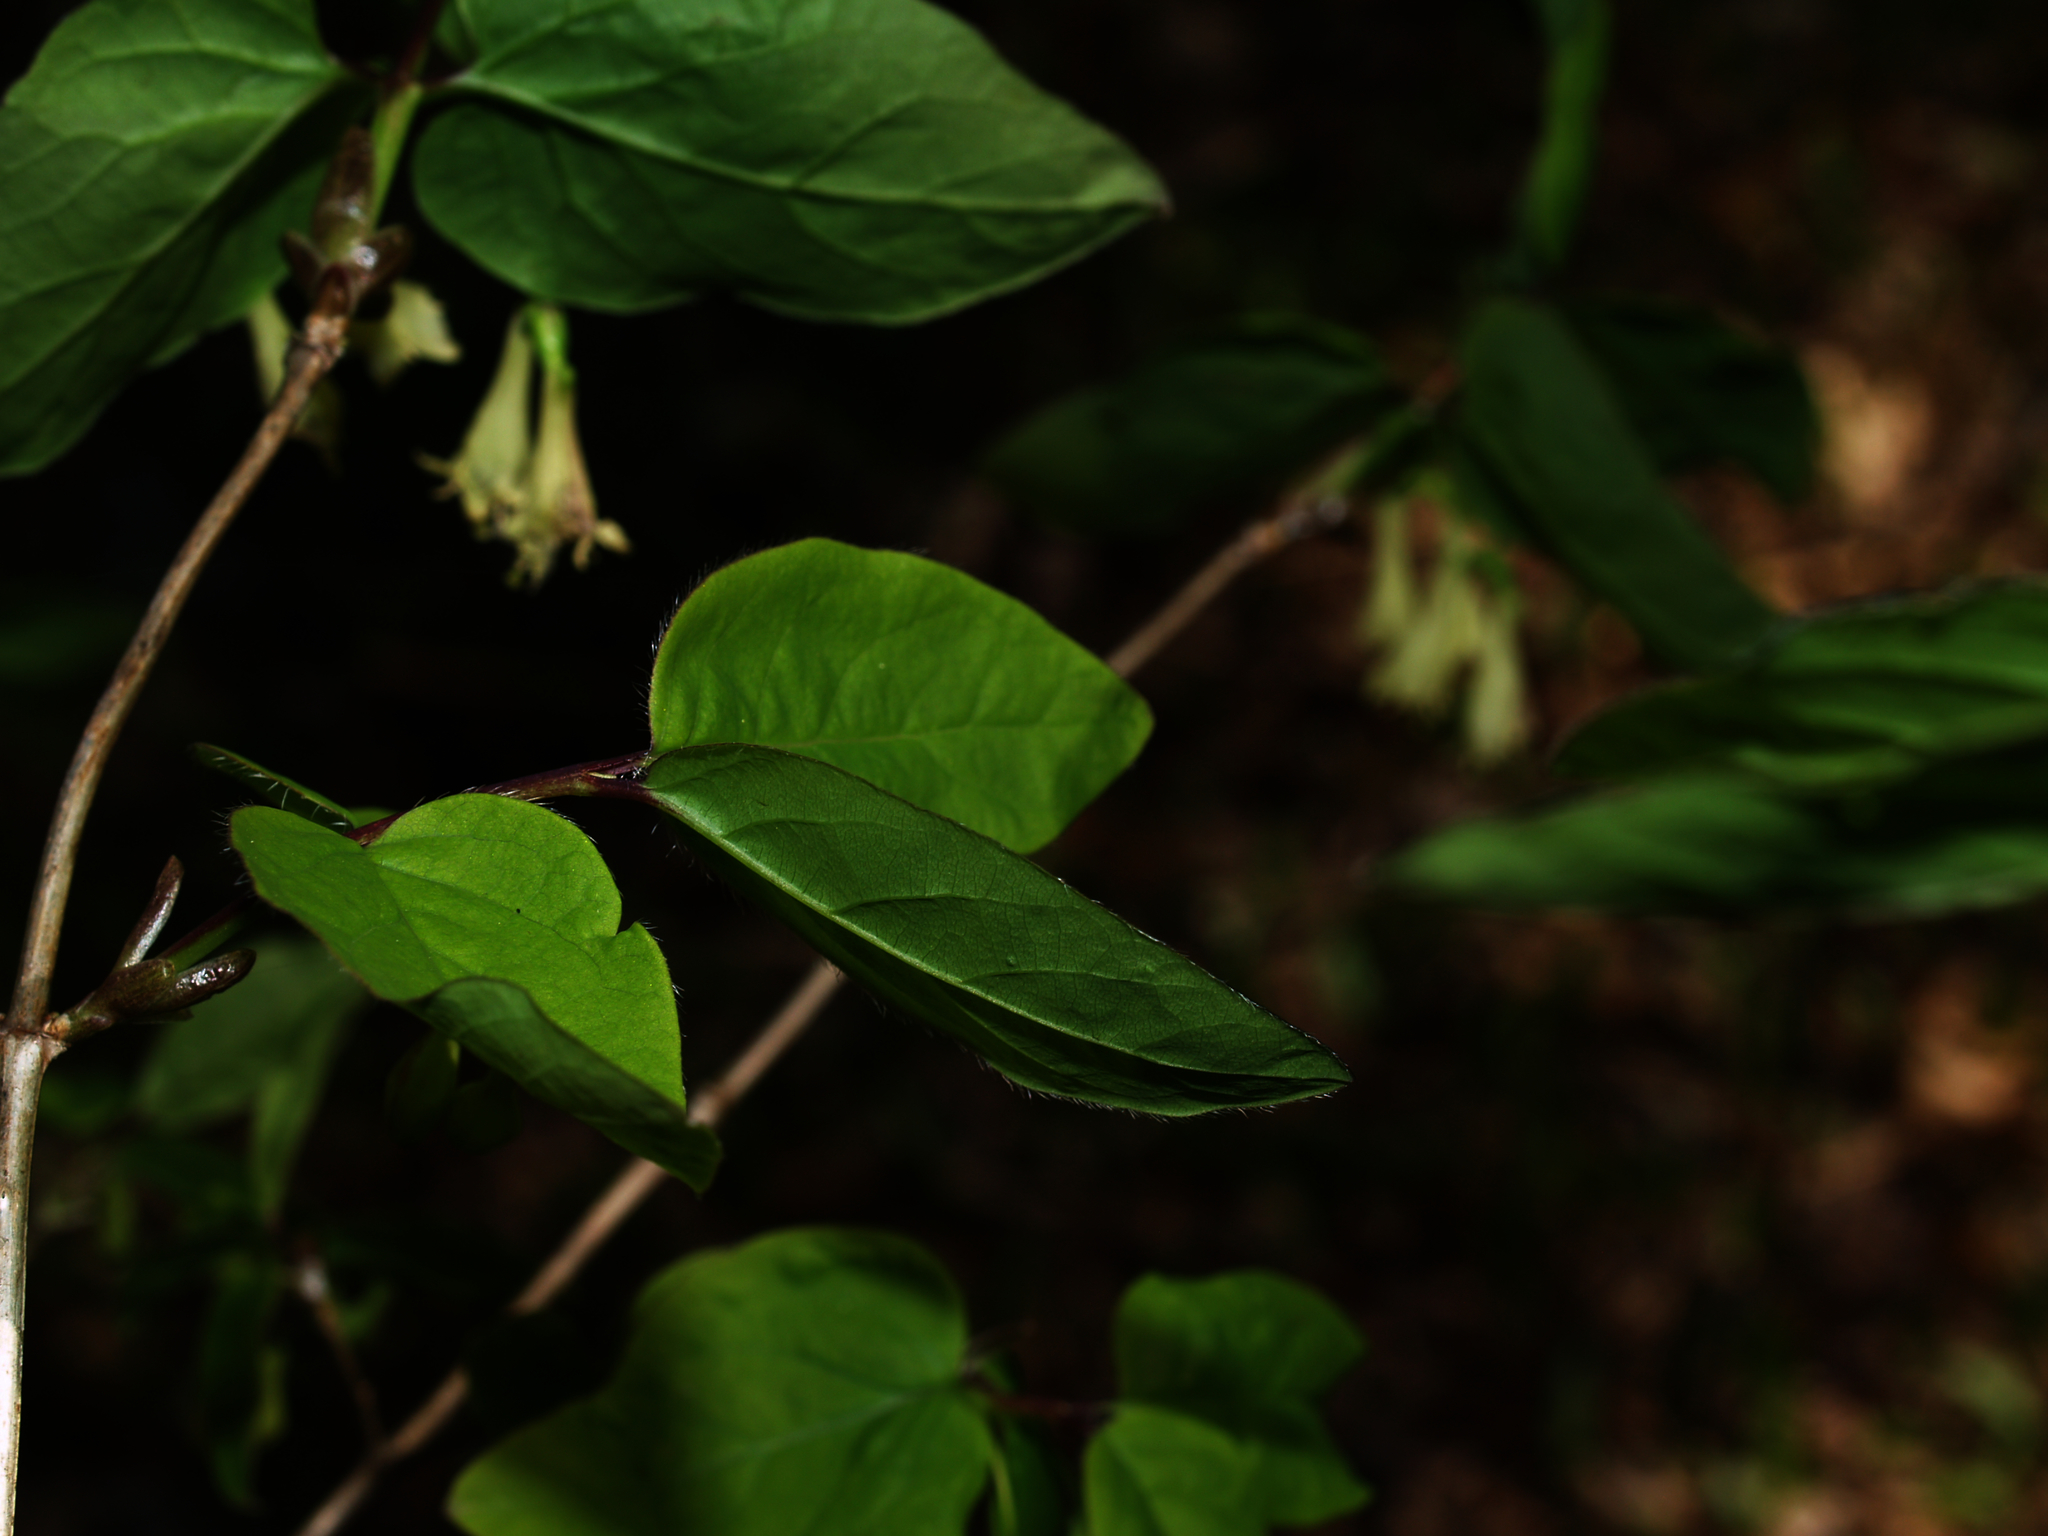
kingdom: Plantae
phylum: Tracheophyta
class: Magnoliopsida
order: Dipsacales
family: Caprifoliaceae
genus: Lonicera
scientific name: Lonicera canadensis
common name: American fly-honeysuckle
